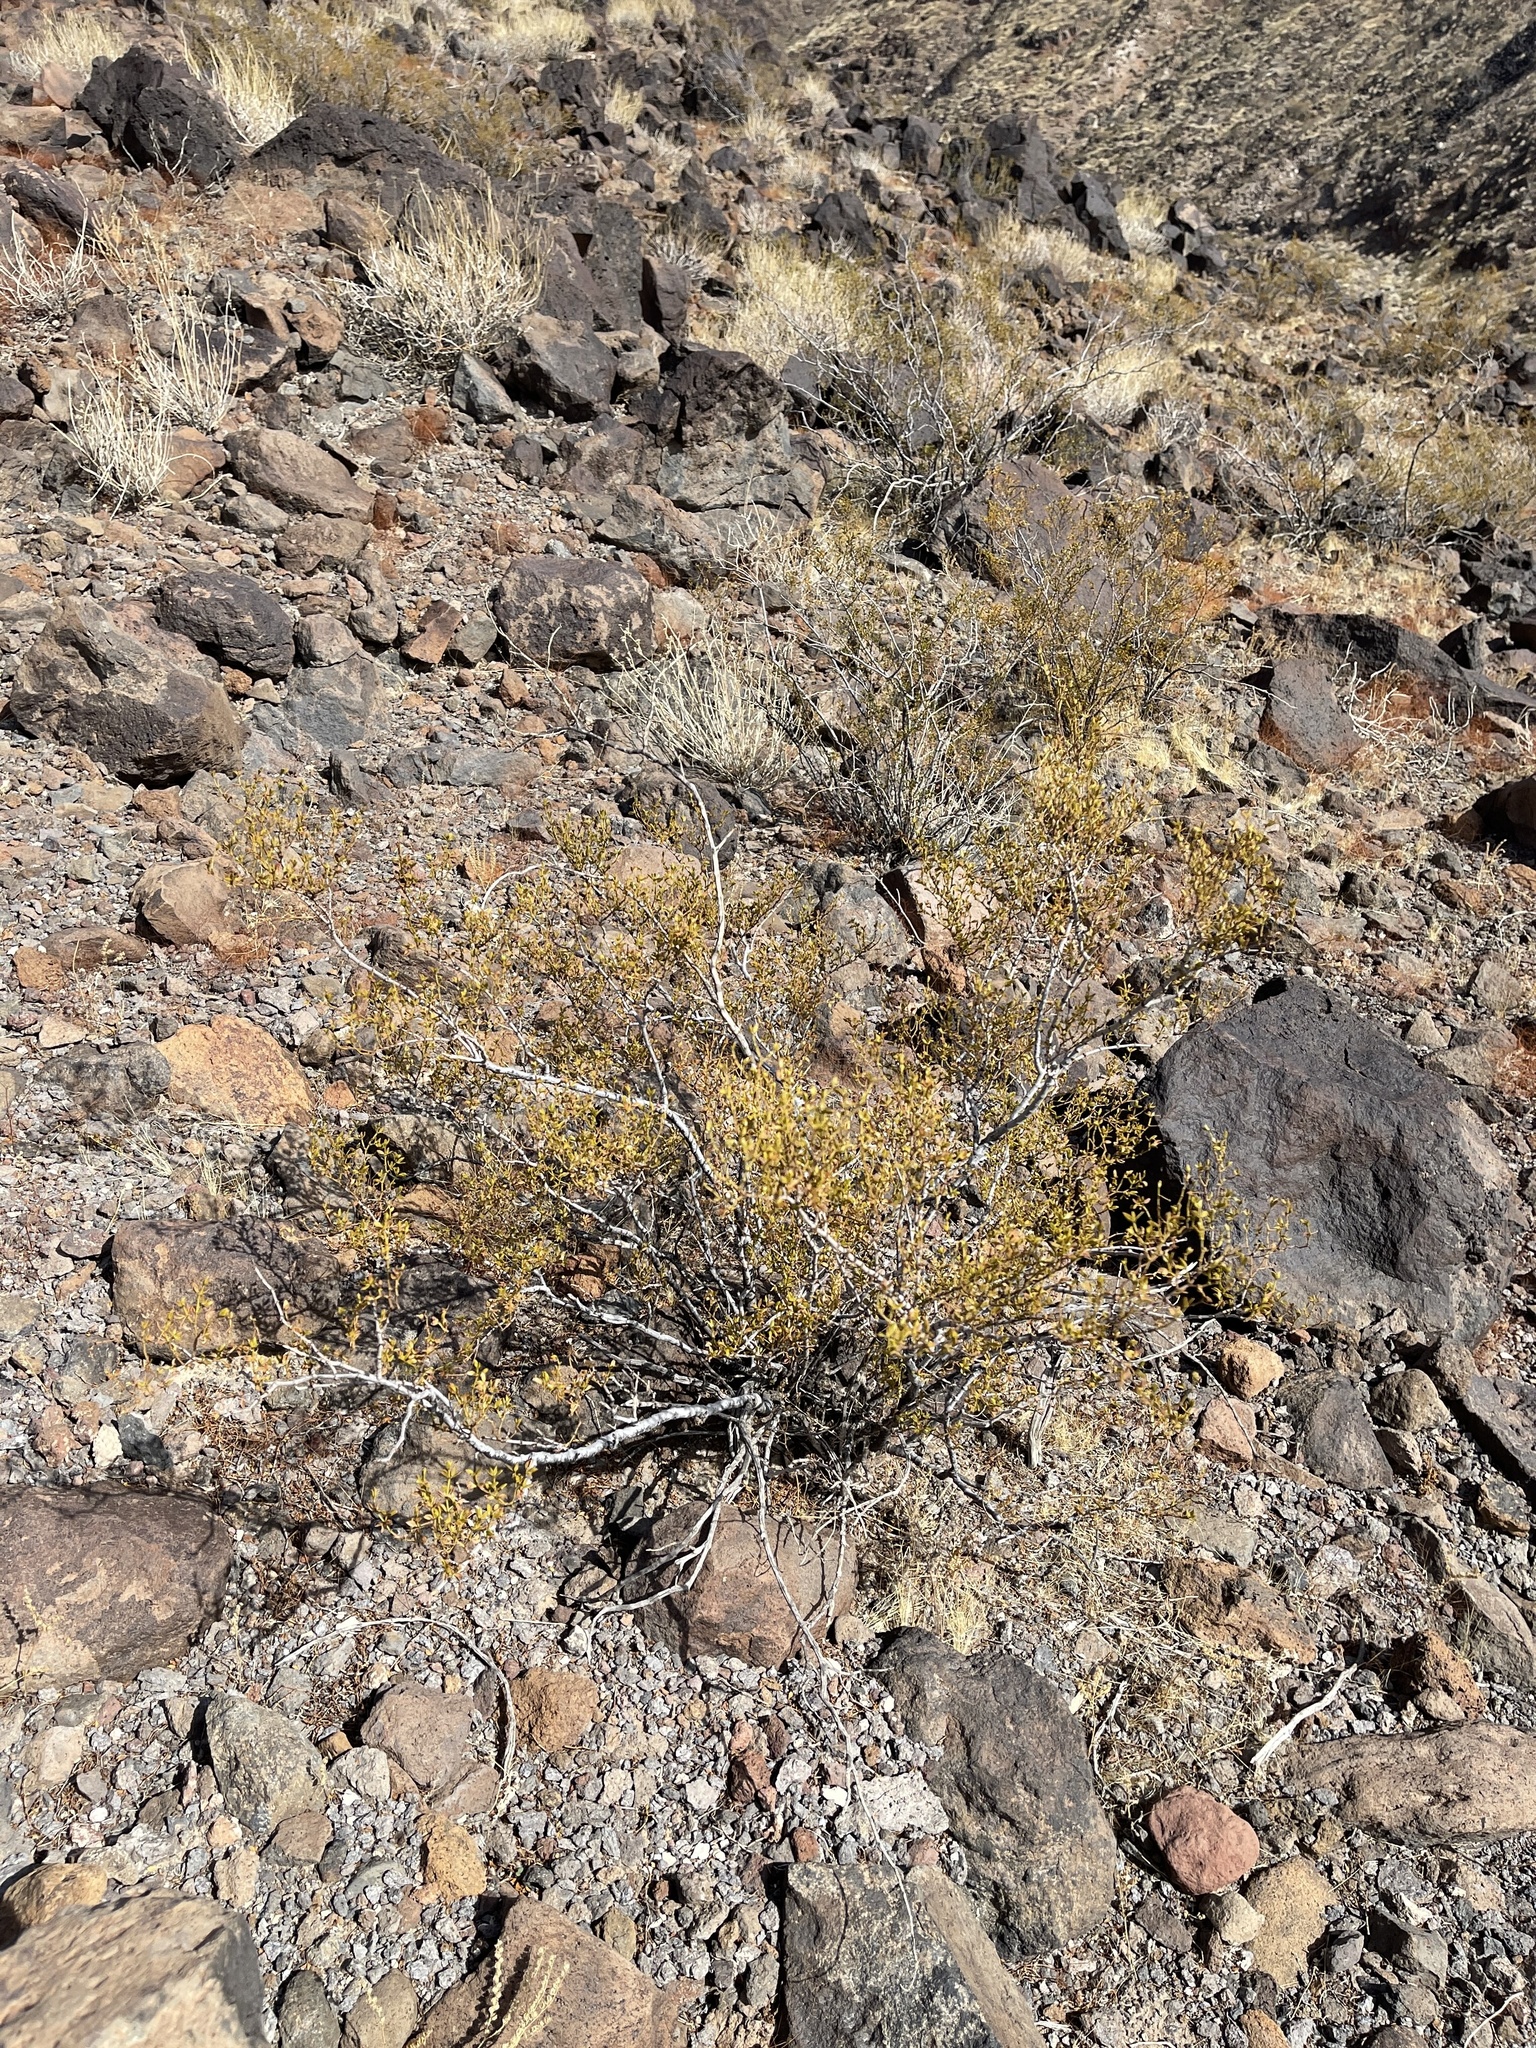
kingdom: Plantae
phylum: Tracheophyta
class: Magnoliopsida
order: Zygophyllales
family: Zygophyllaceae
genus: Larrea
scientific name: Larrea tridentata
